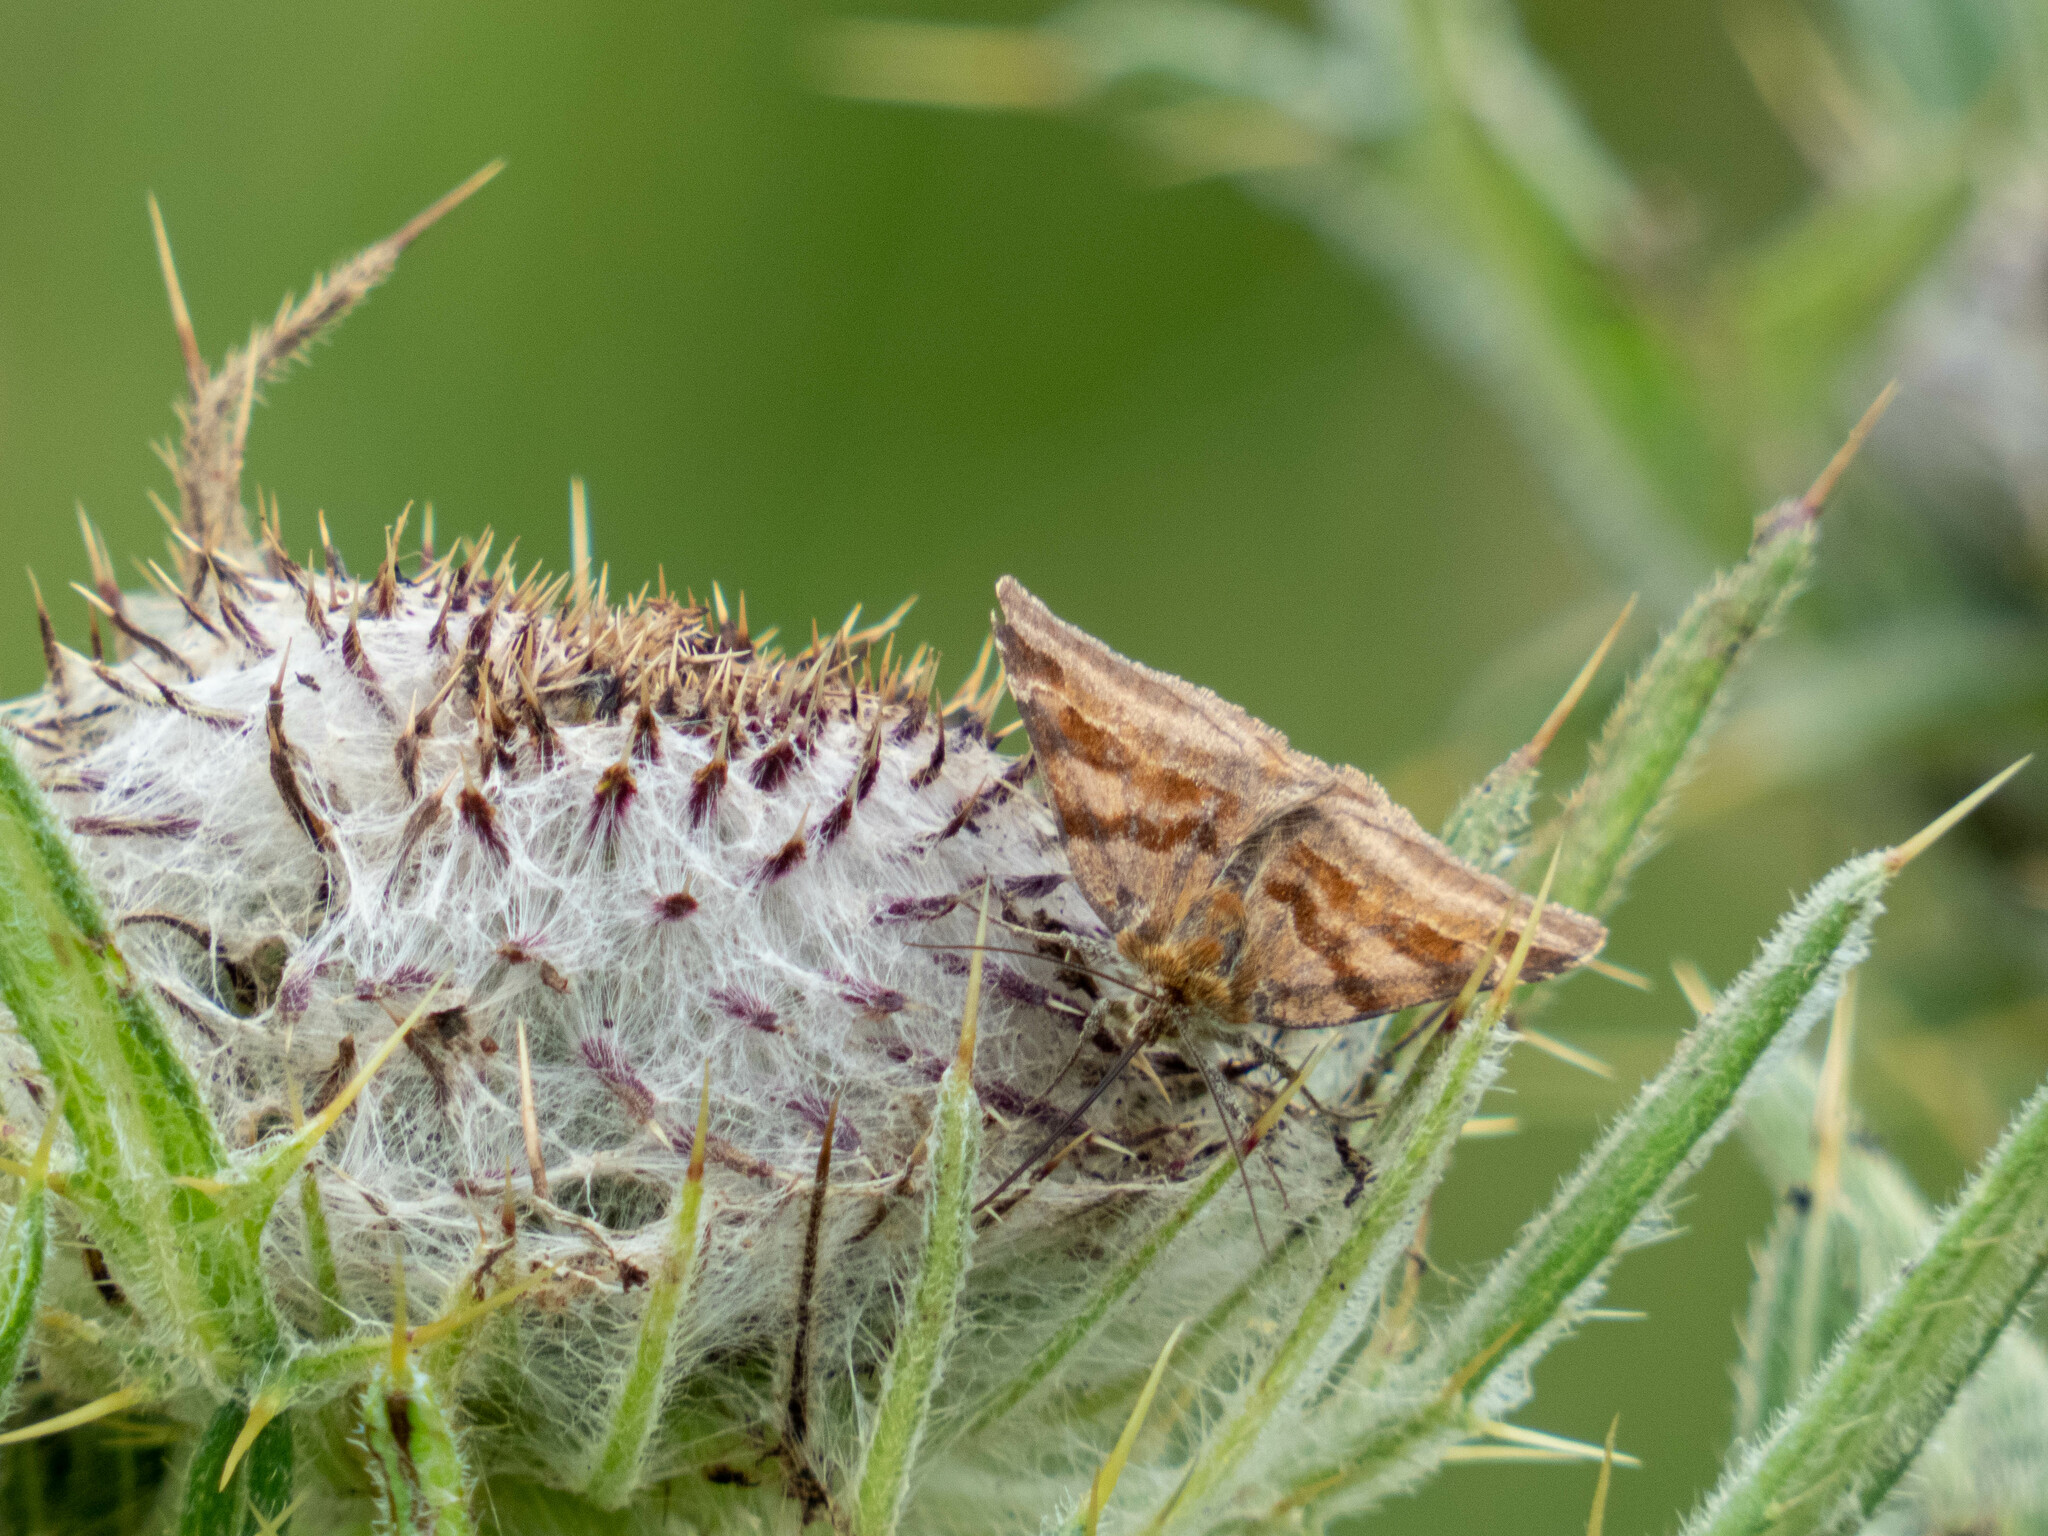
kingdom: Animalia
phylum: Arthropoda
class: Insecta
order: Lepidoptera
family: Erebidae
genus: Euclidia
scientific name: Euclidia glyphica
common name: Burnet companion
